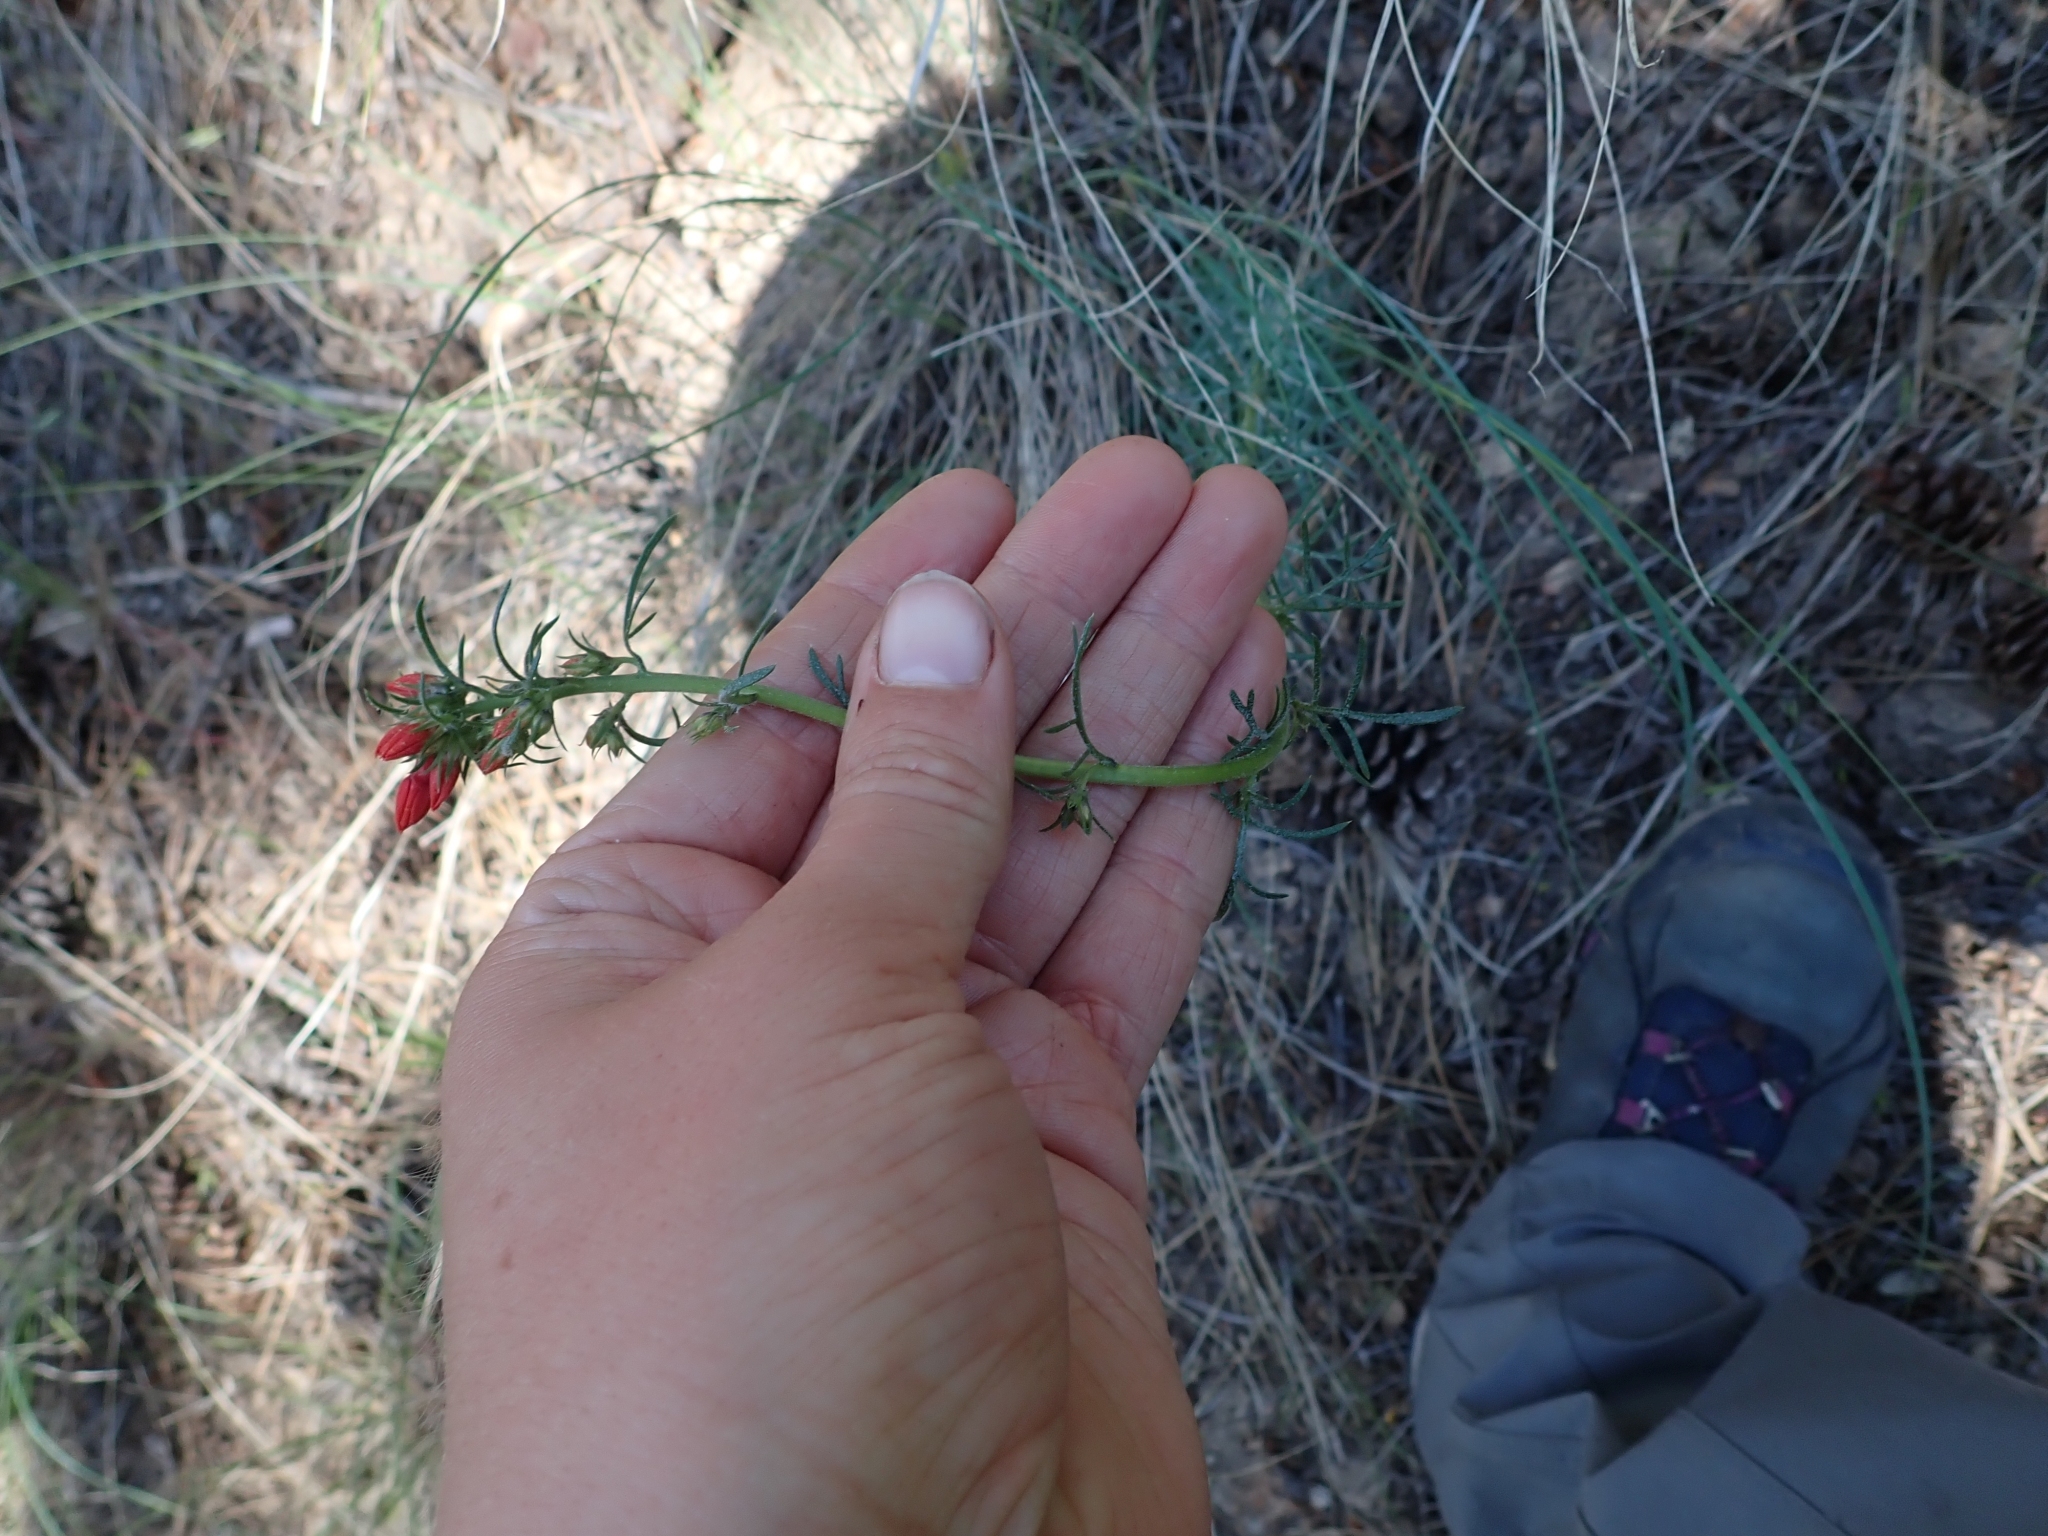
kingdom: Plantae
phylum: Tracheophyta
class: Magnoliopsida
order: Ericales
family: Polemoniaceae
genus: Ipomopsis
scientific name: Ipomopsis aggregata
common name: Scarlet gilia
